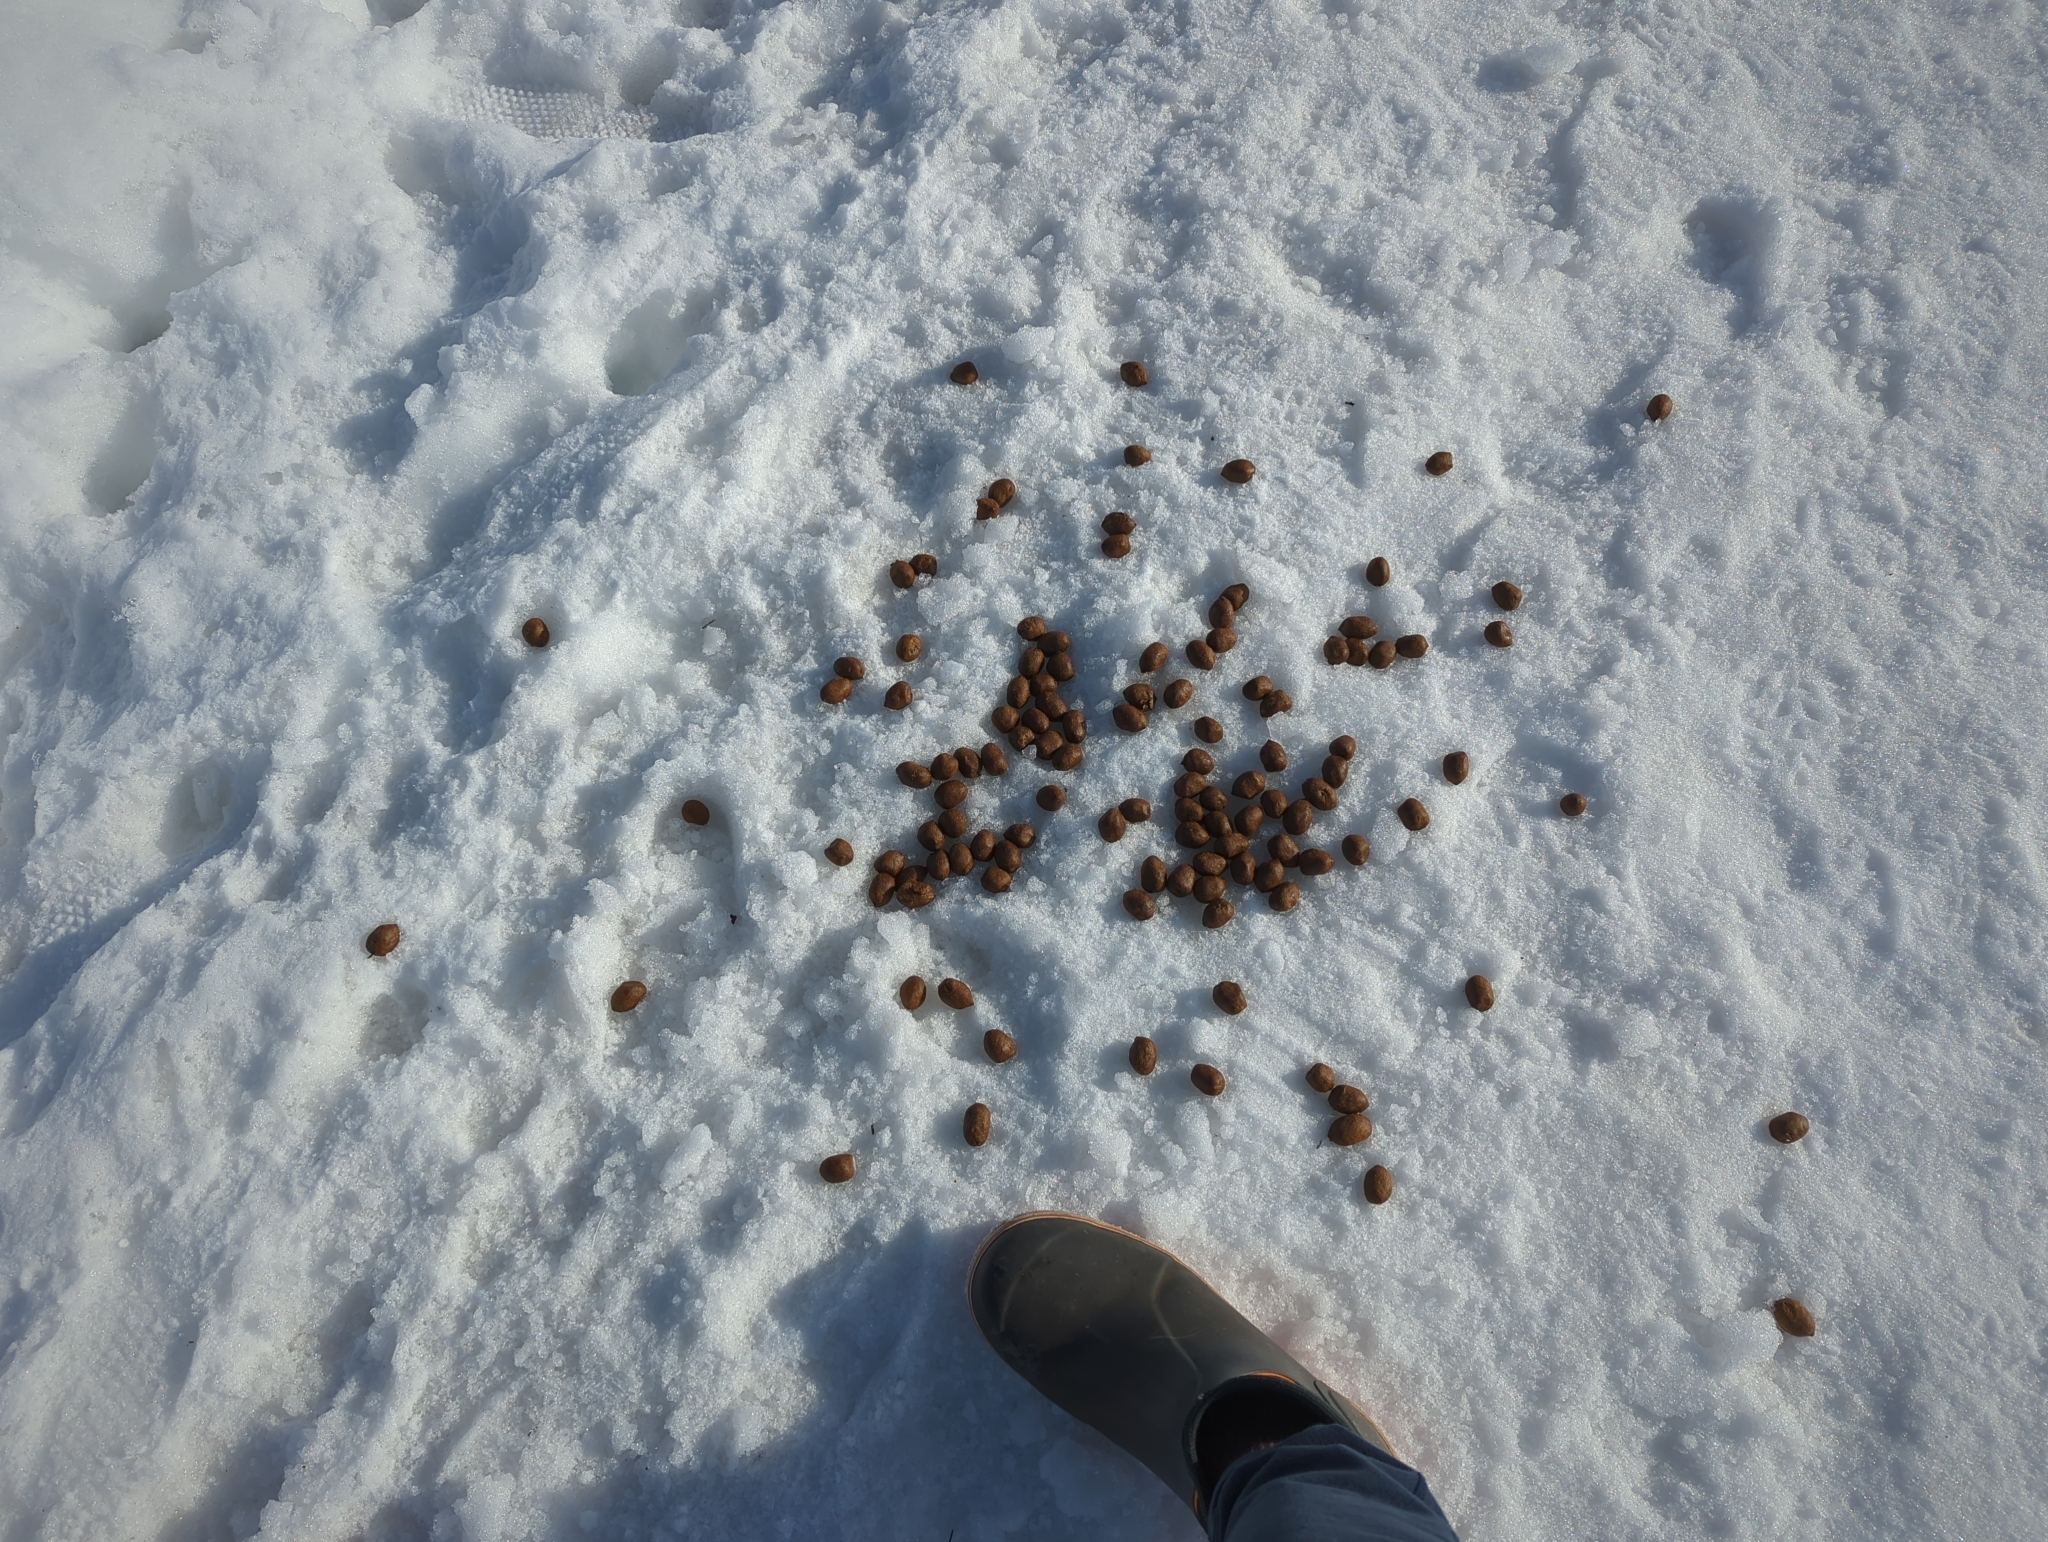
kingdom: Animalia
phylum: Chordata
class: Mammalia
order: Artiodactyla
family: Cervidae
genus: Alces
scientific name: Alces alces
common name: Moose
